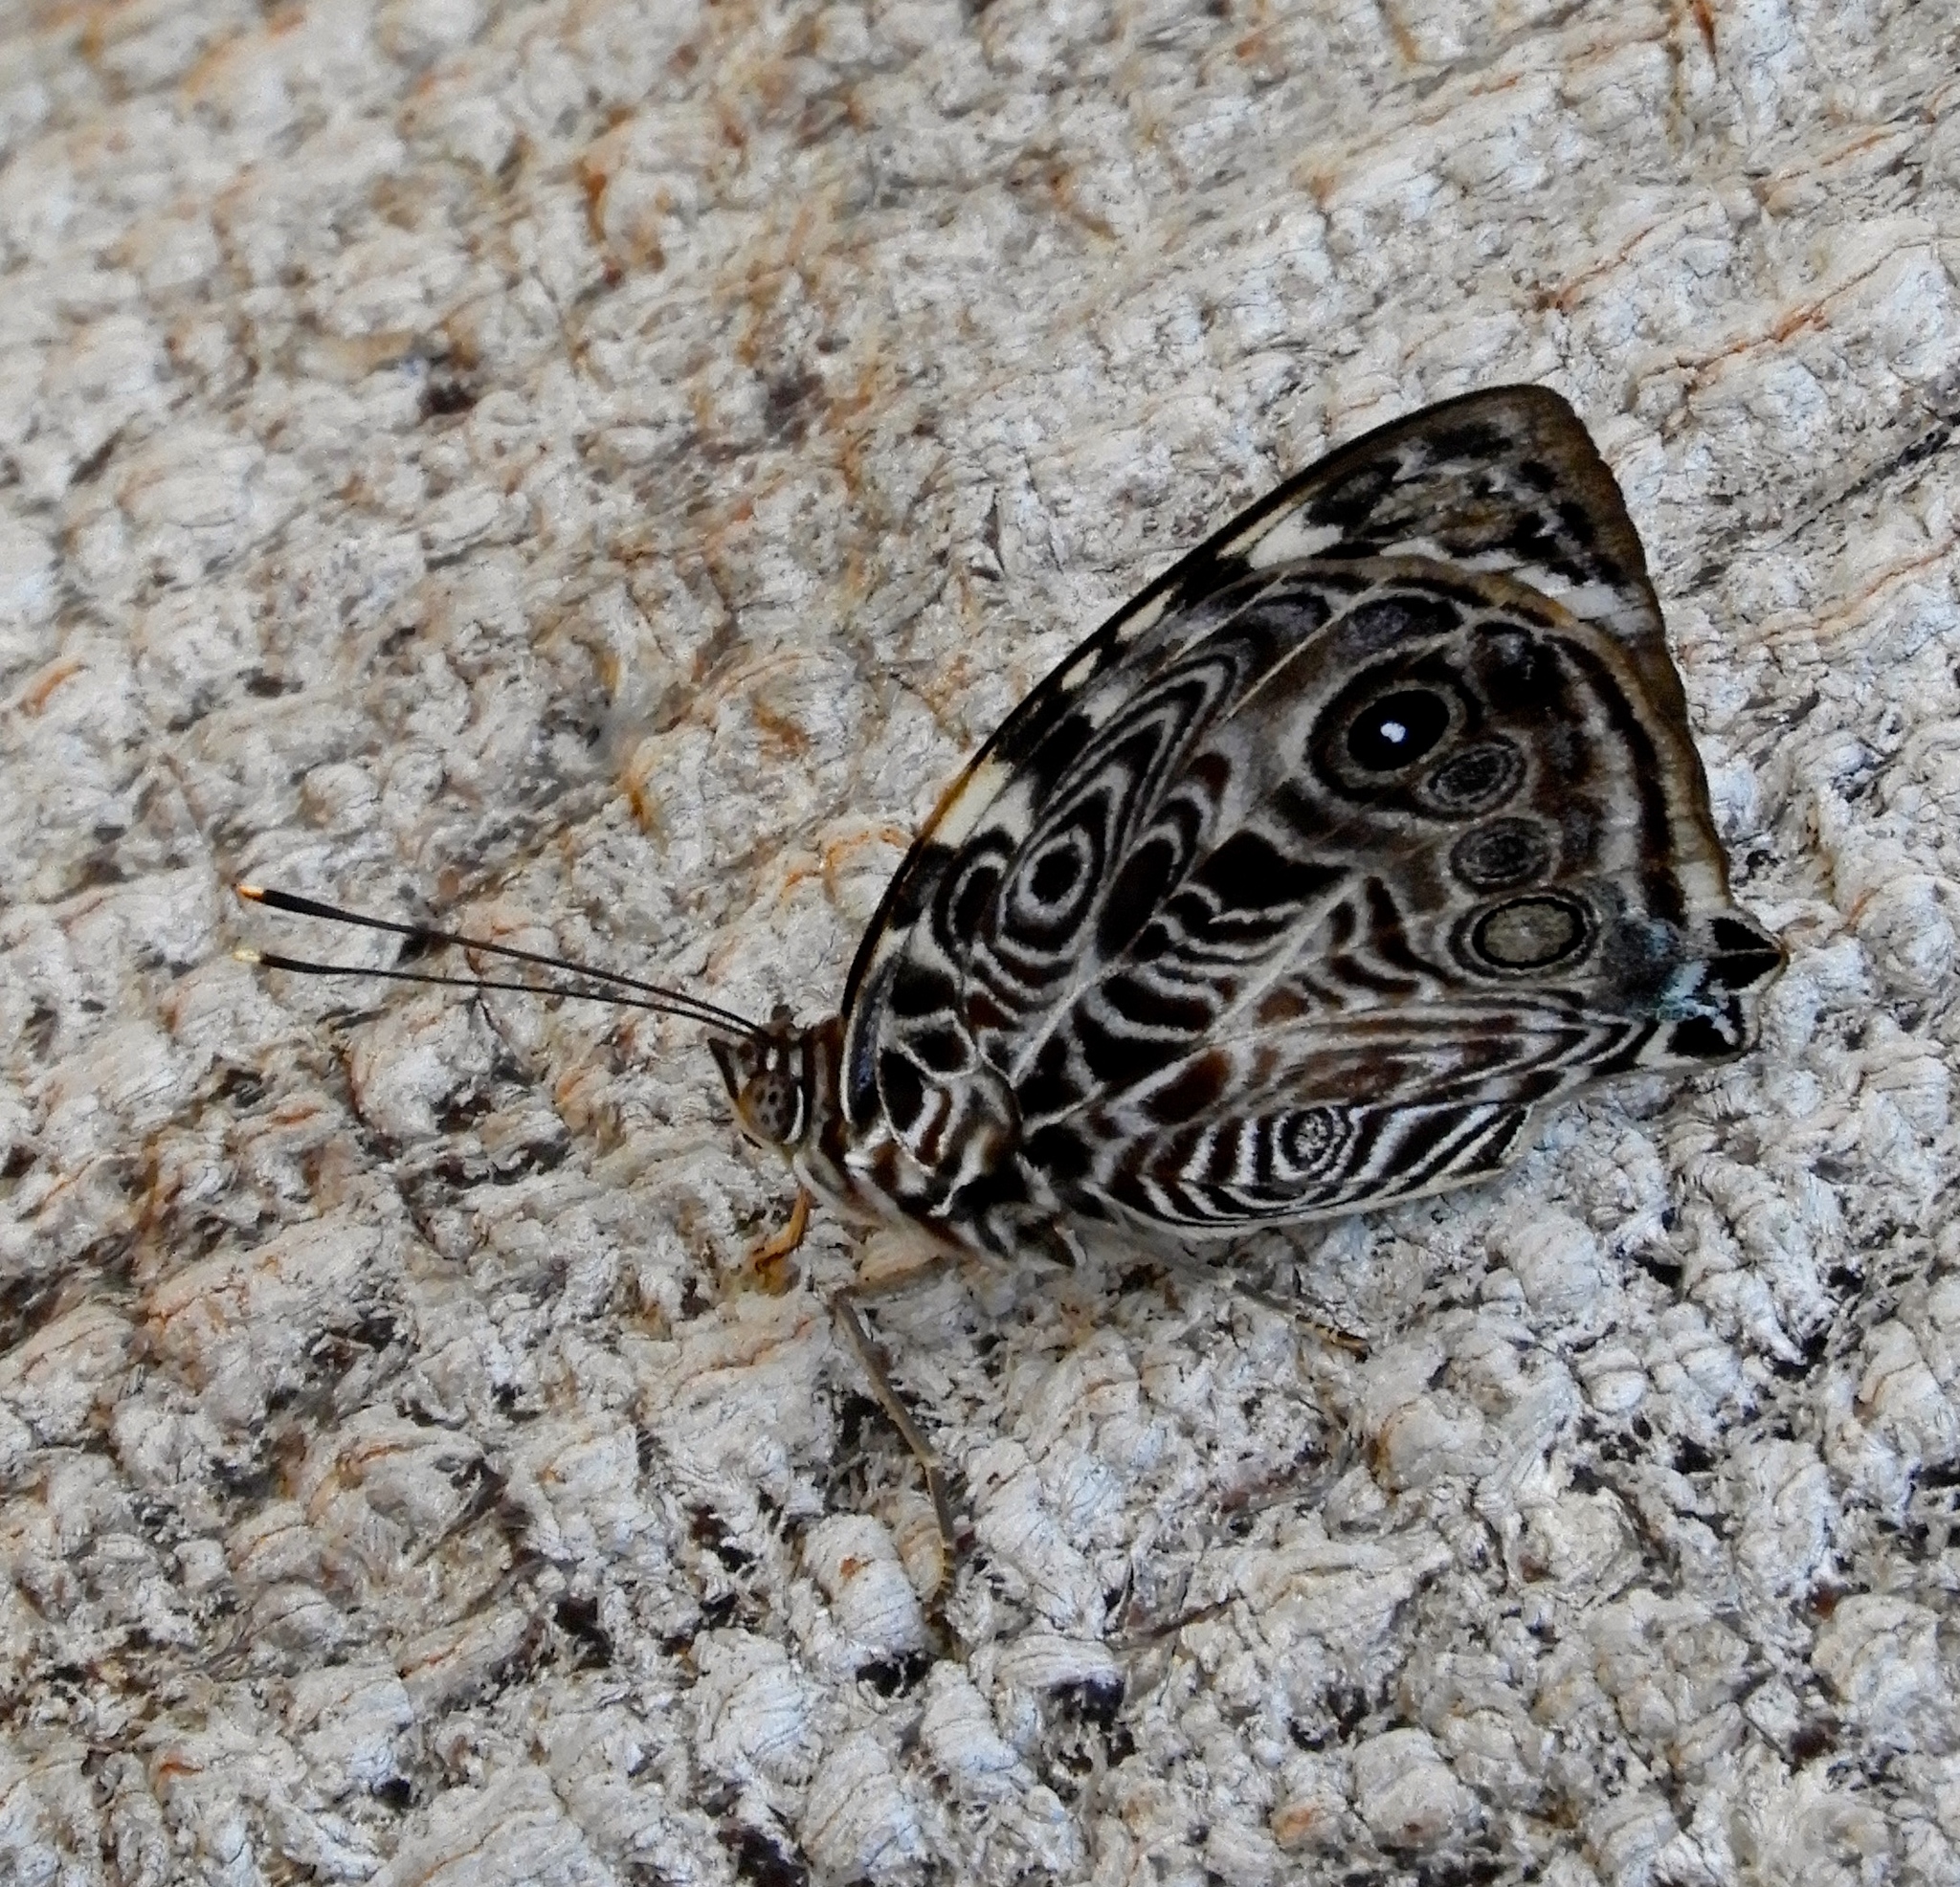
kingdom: Animalia
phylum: Arthropoda
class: Insecta
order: Lepidoptera
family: Nymphalidae
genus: Smyrna
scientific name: Smyrna blomfildia
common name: Blomfild's beauty
